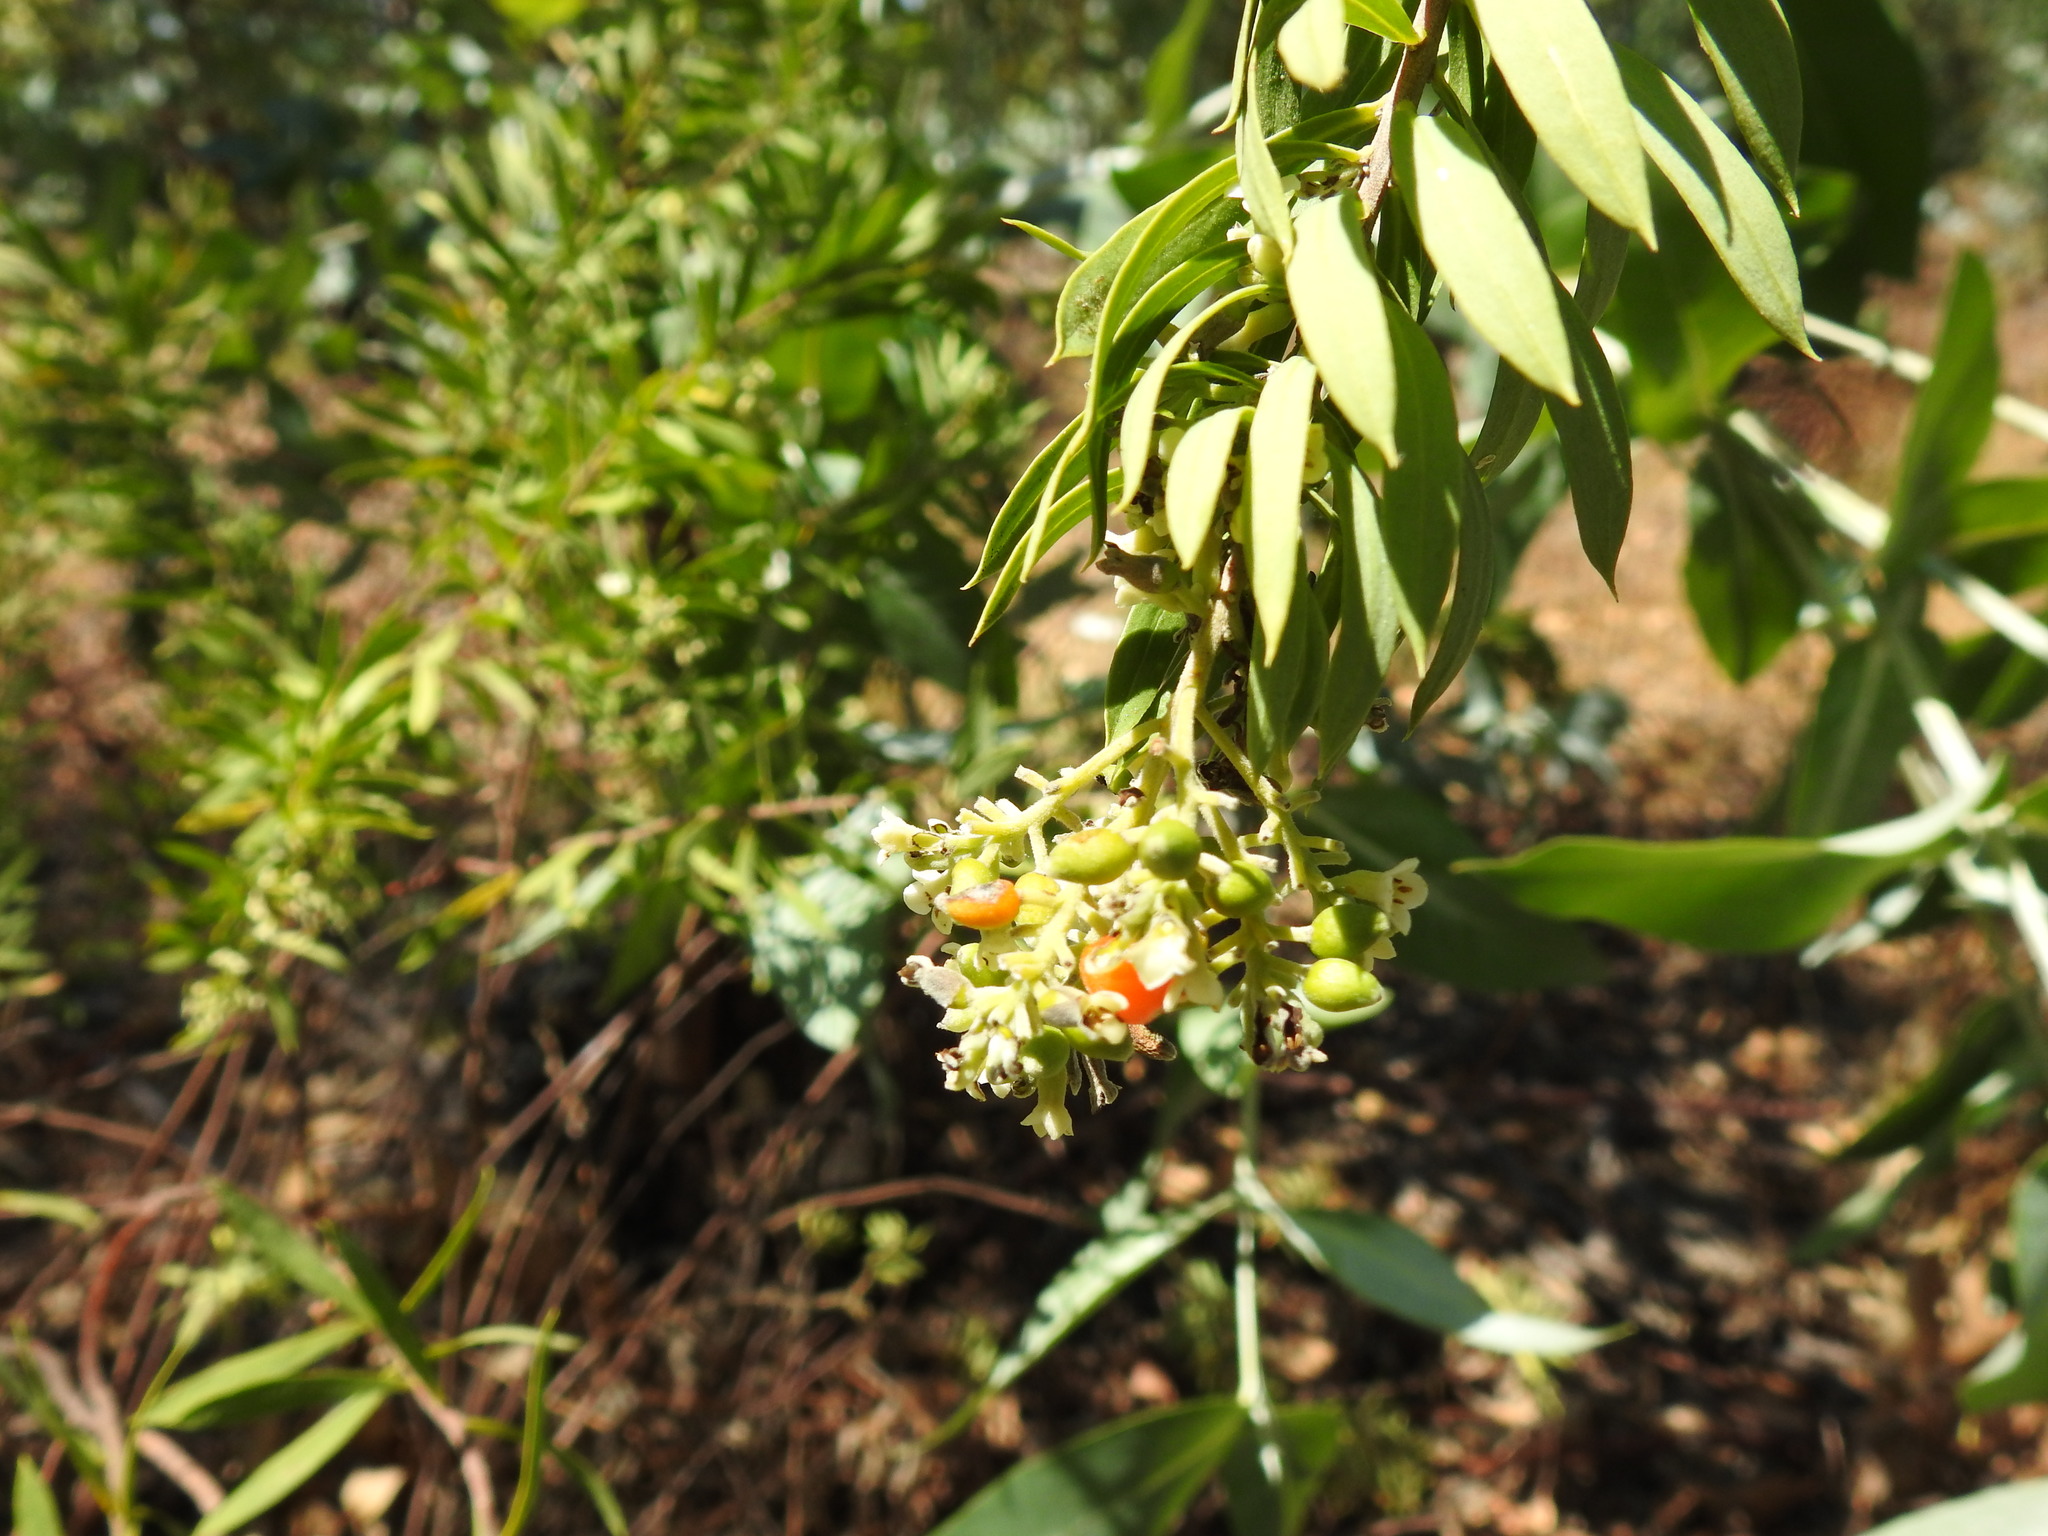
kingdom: Plantae
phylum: Tracheophyta
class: Magnoliopsida
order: Malvales
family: Thymelaeaceae
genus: Daphne
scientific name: Daphne gnidium
